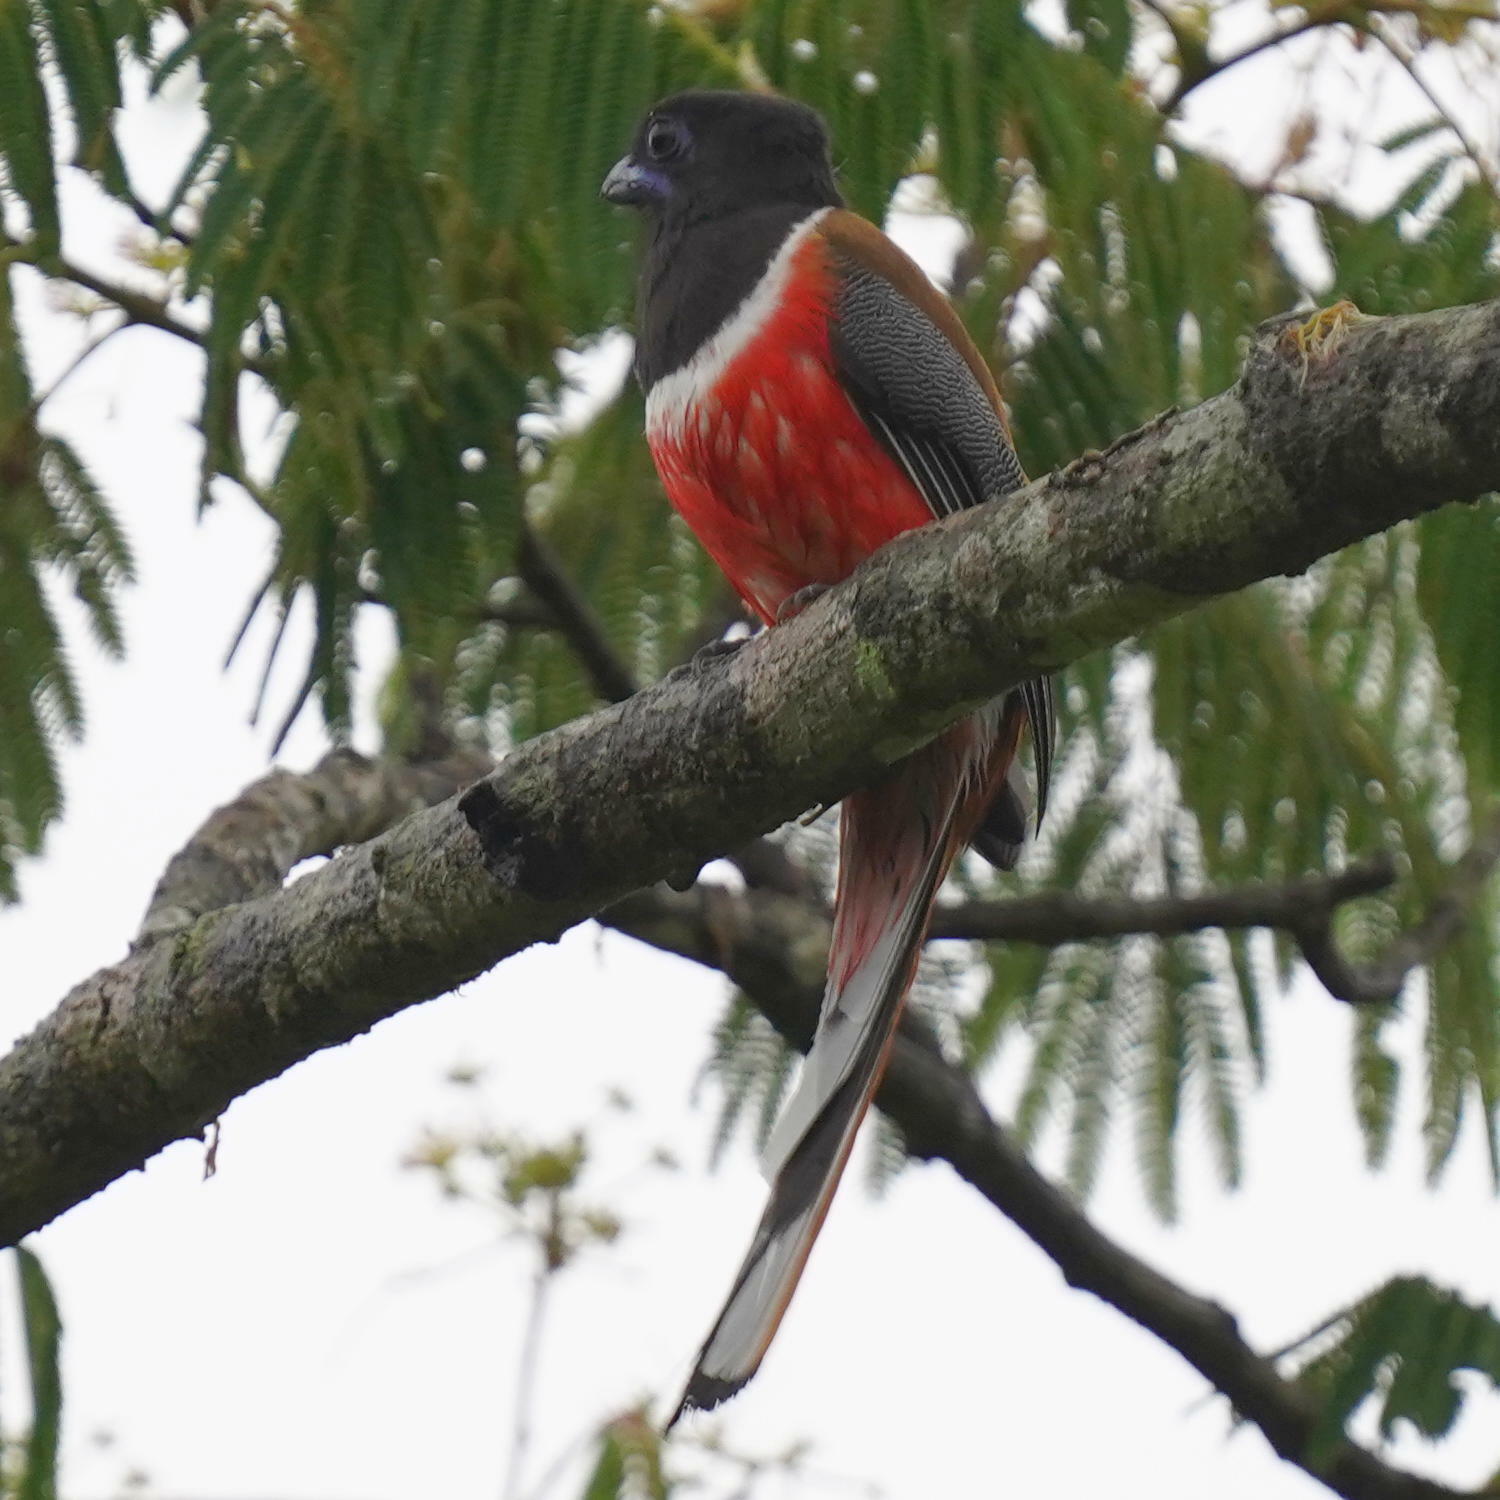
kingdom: Animalia
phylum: Chordata
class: Aves
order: Trogoniformes
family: Trogonidae
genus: Harpactes
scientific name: Harpactes fasciatus
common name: Malabar trogon
